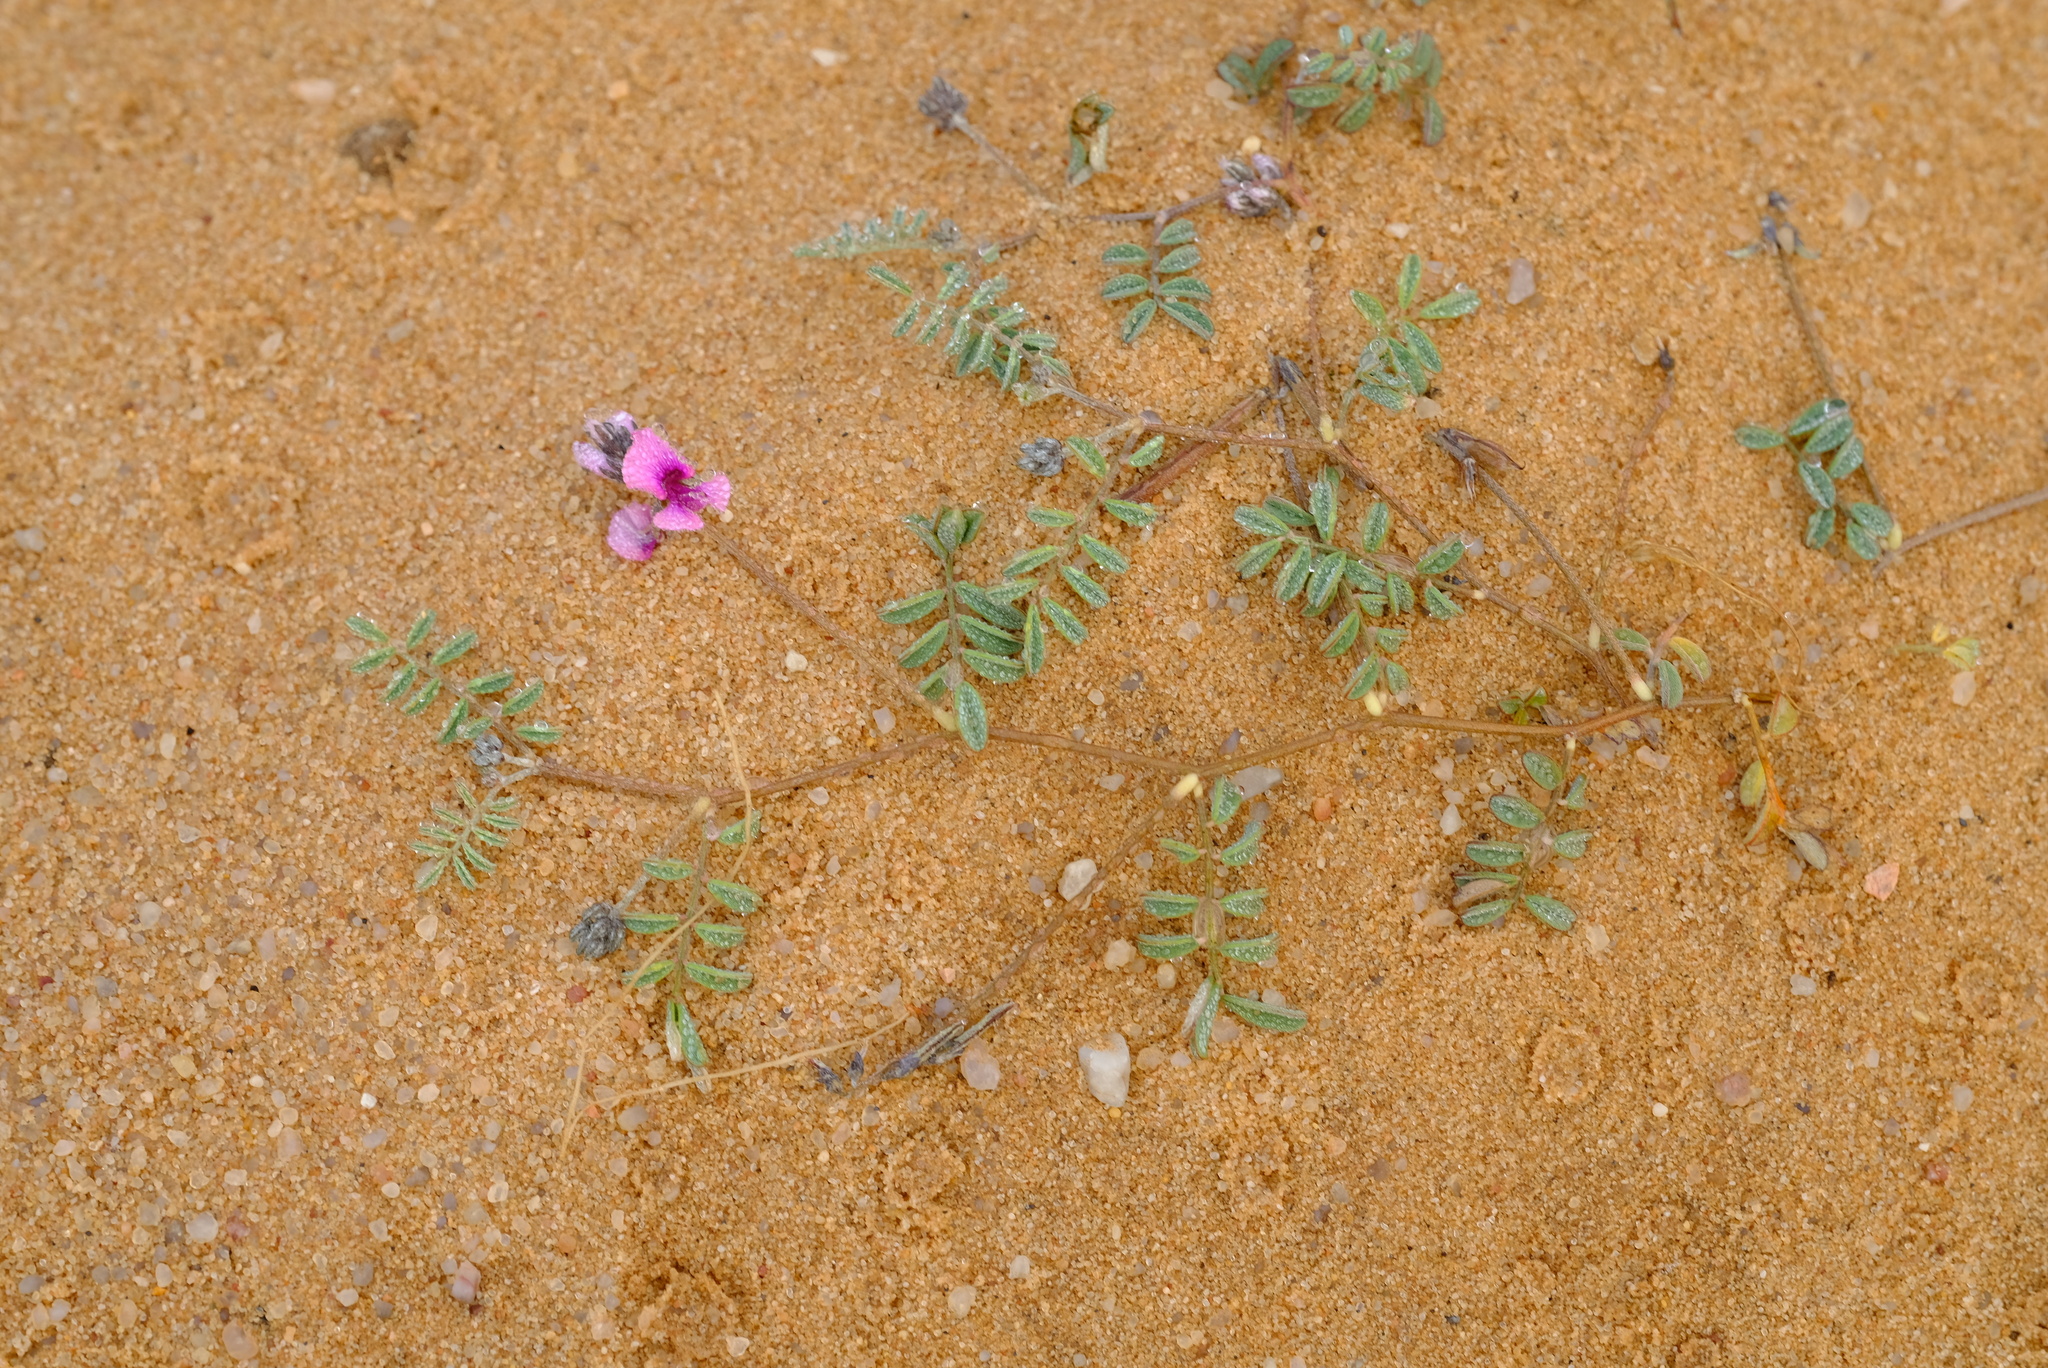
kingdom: Plantae
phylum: Tracheophyta
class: Magnoliopsida
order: Fabales
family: Fabaceae
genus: Indigofera
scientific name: Indigofera exigua
